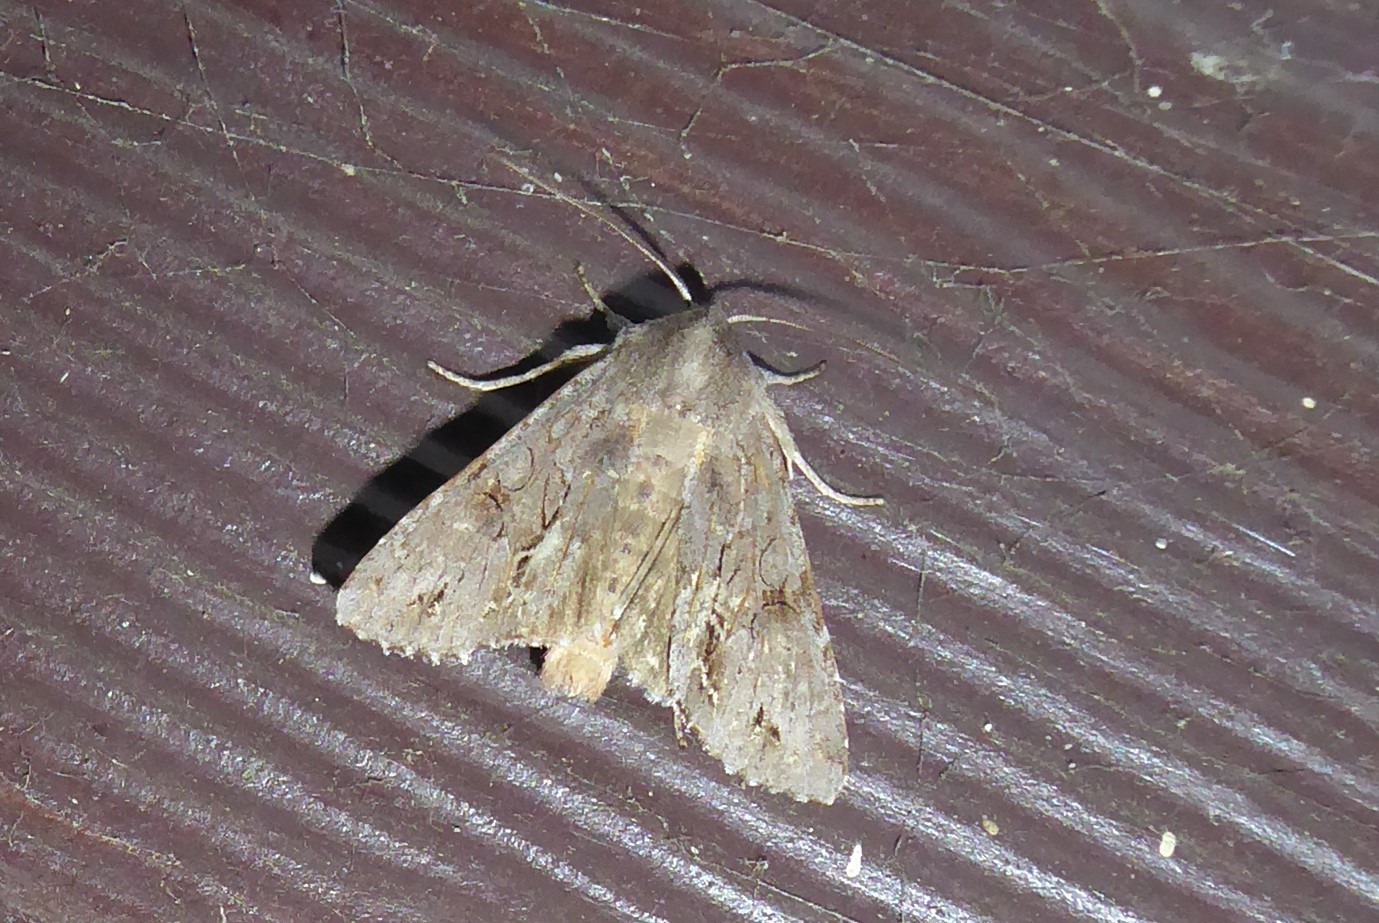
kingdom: Animalia
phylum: Arthropoda
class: Insecta
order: Lepidoptera
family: Noctuidae
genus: Ichneutica
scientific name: Ichneutica
